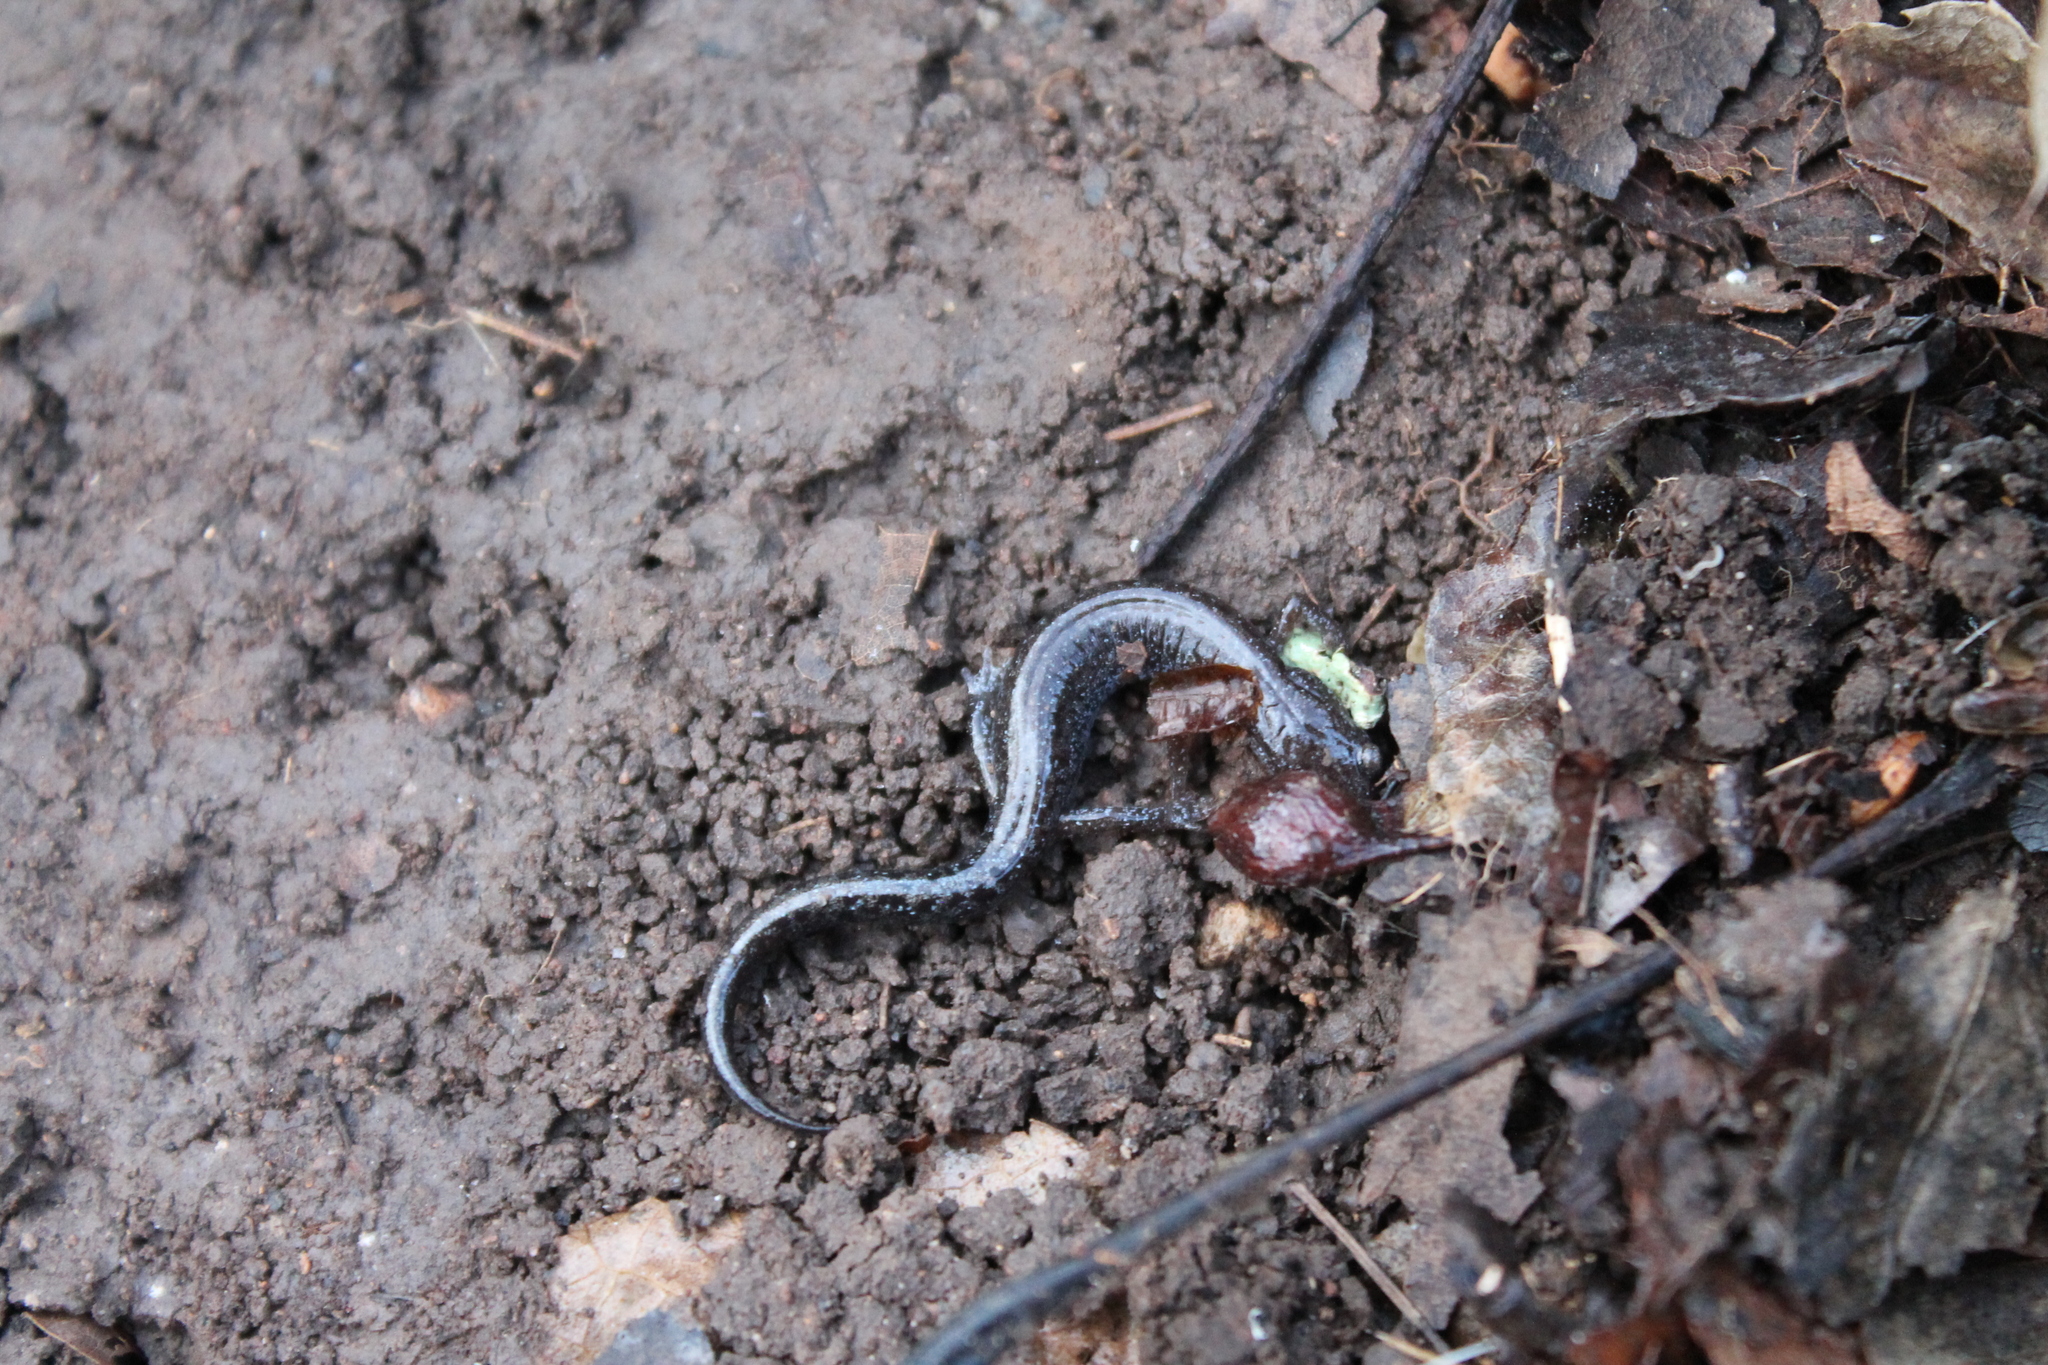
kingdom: Animalia
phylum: Chordata
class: Amphibia
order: Caudata
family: Plethodontidae
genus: Plethodon
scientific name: Plethodon dorsalis
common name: Northern zigzag salamander
